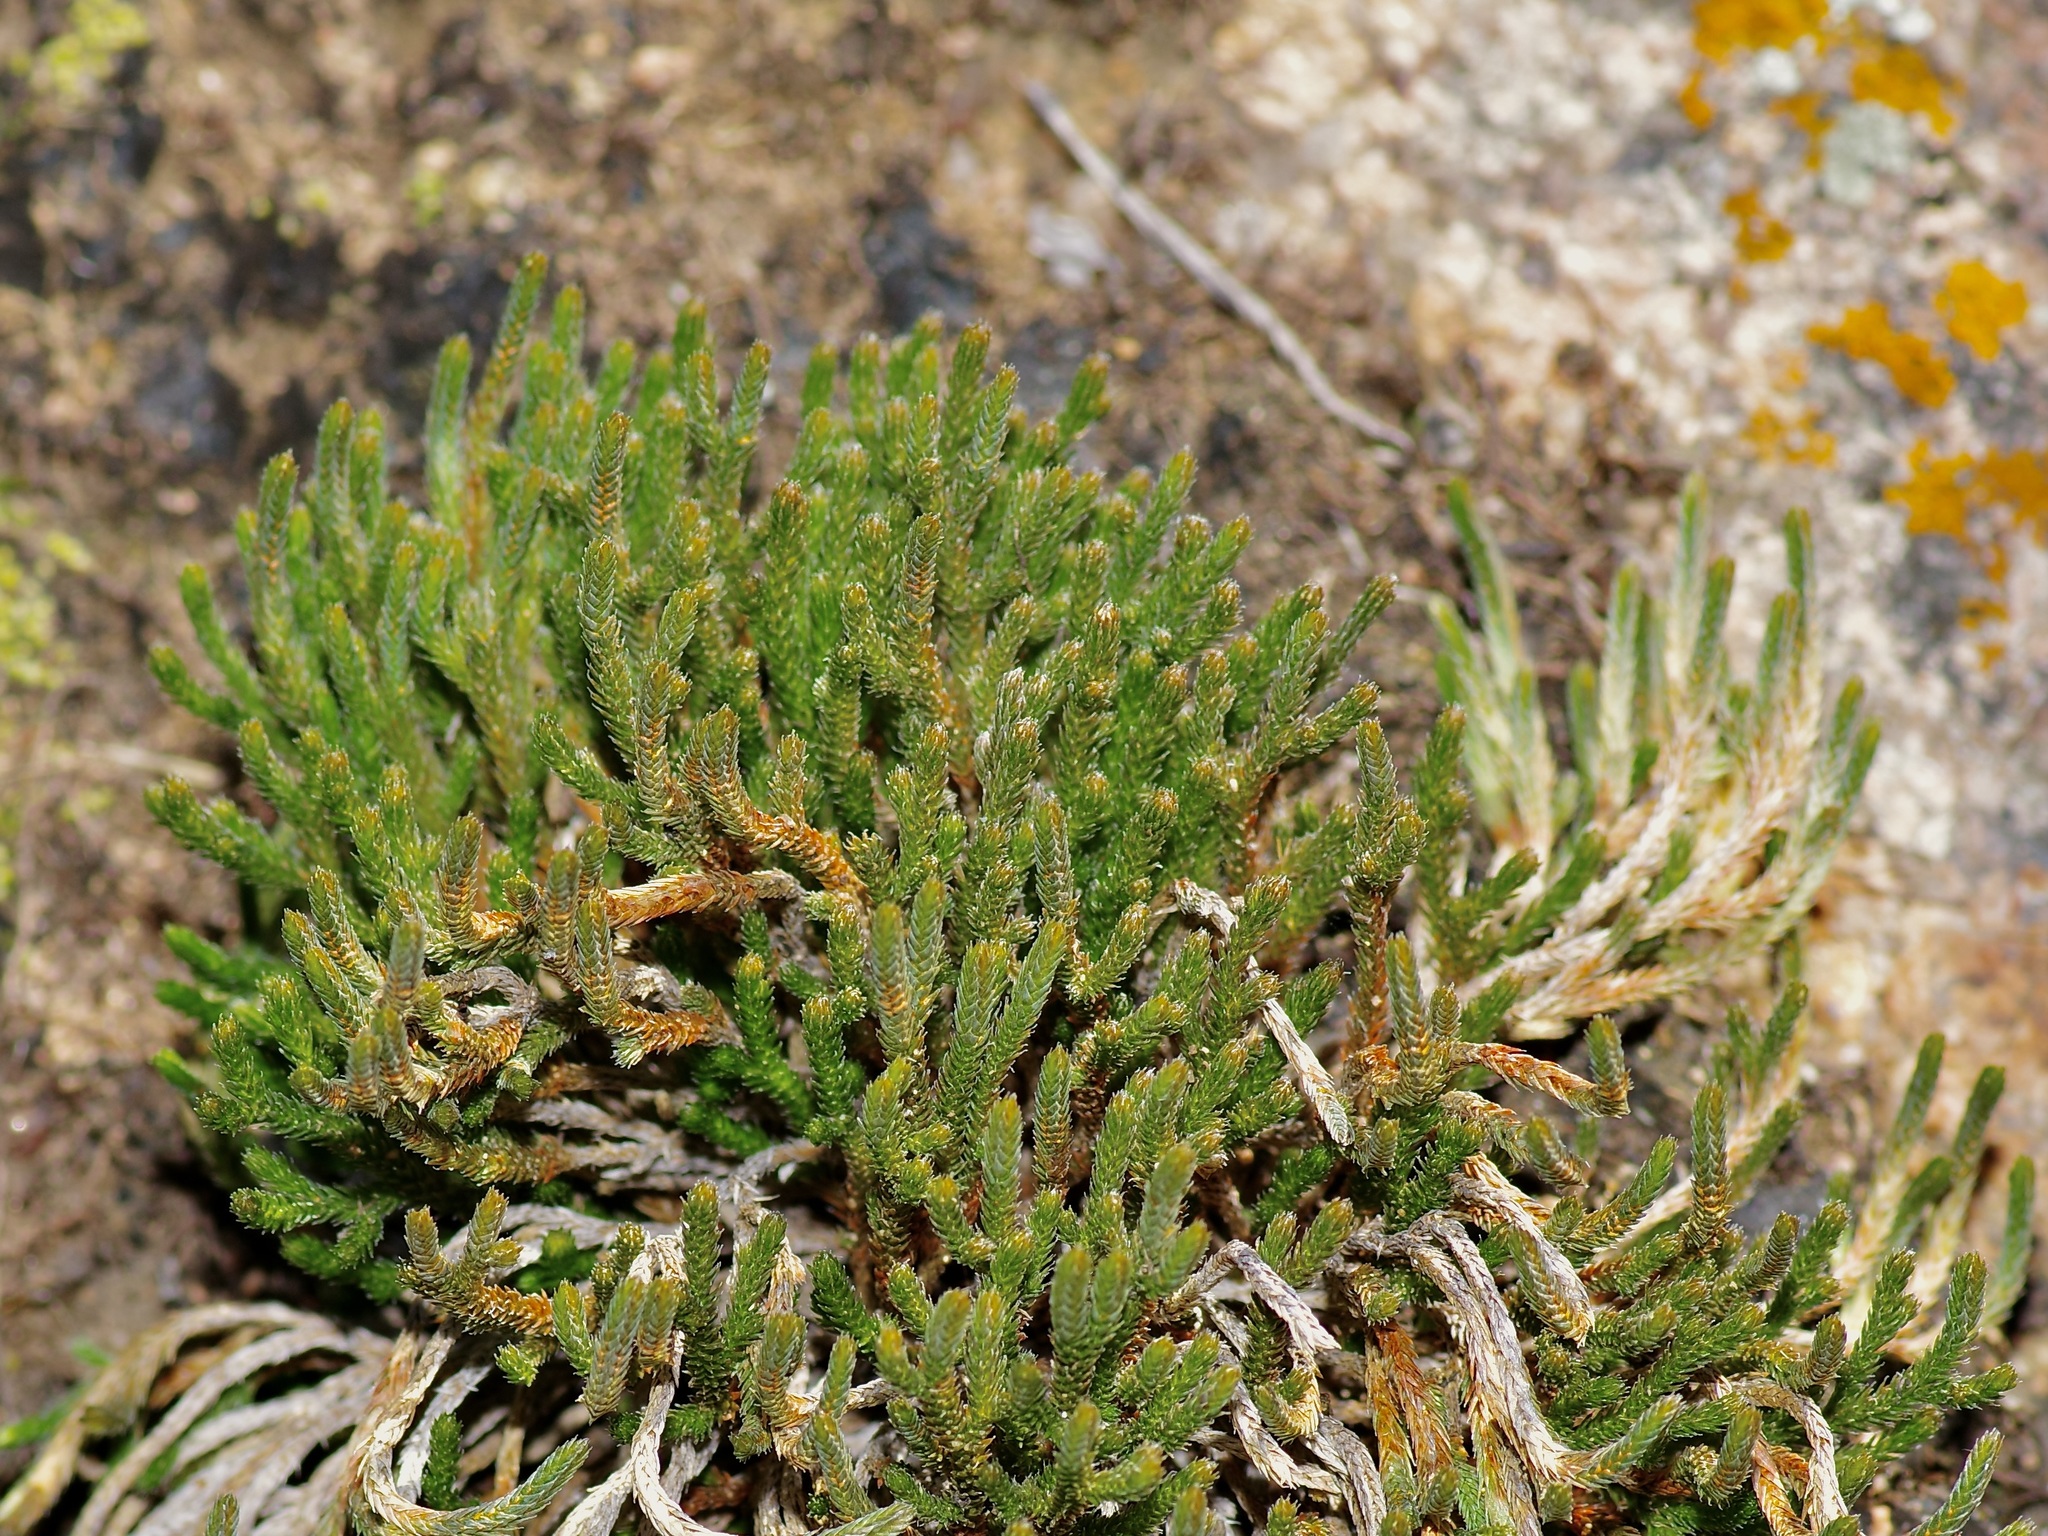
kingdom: Plantae
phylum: Tracheophyta
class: Lycopodiopsida
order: Selaginellales
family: Selaginellaceae
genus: Selaginella
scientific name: Selaginella corallina
